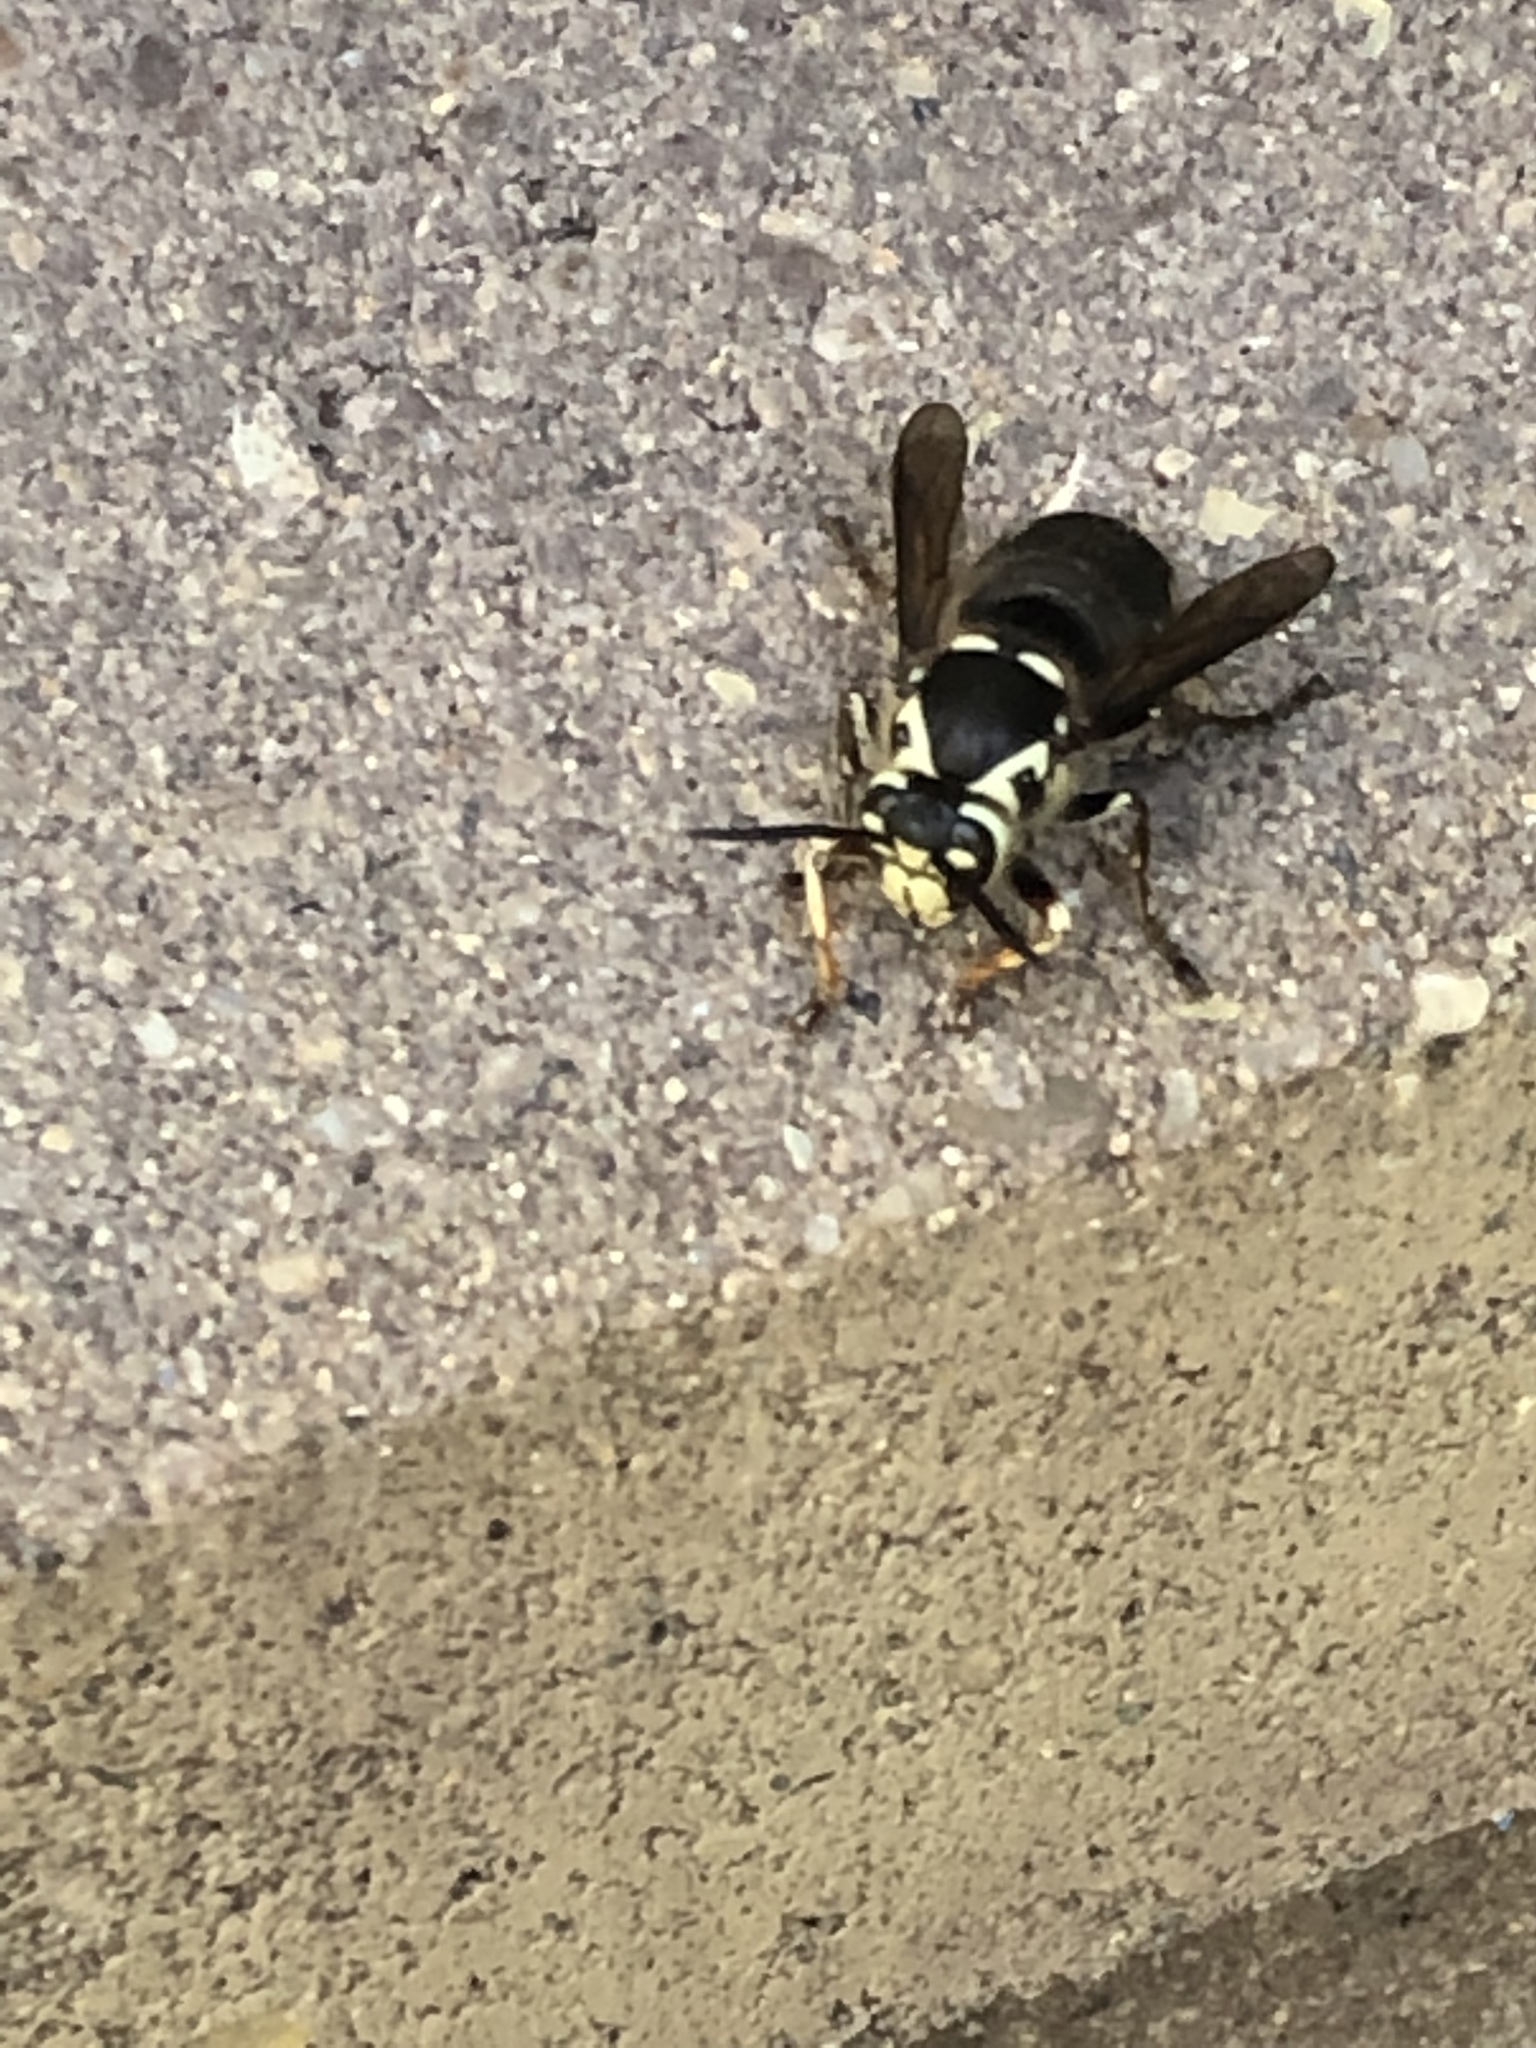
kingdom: Animalia
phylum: Arthropoda
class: Insecta
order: Hymenoptera
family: Vespidae
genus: Dolichovespula
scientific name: Dolichovespula maculata
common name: Bald-faced hornet
